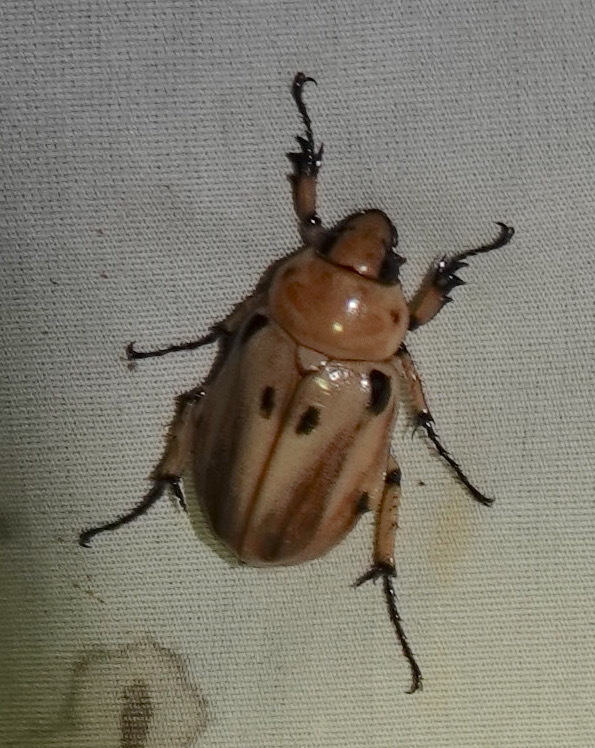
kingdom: Animalia
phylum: Arthropoda
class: Insecta
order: Coleoptera
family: Scarabaeidae
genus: Ancognatha
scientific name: Ancognatha vulgaris
